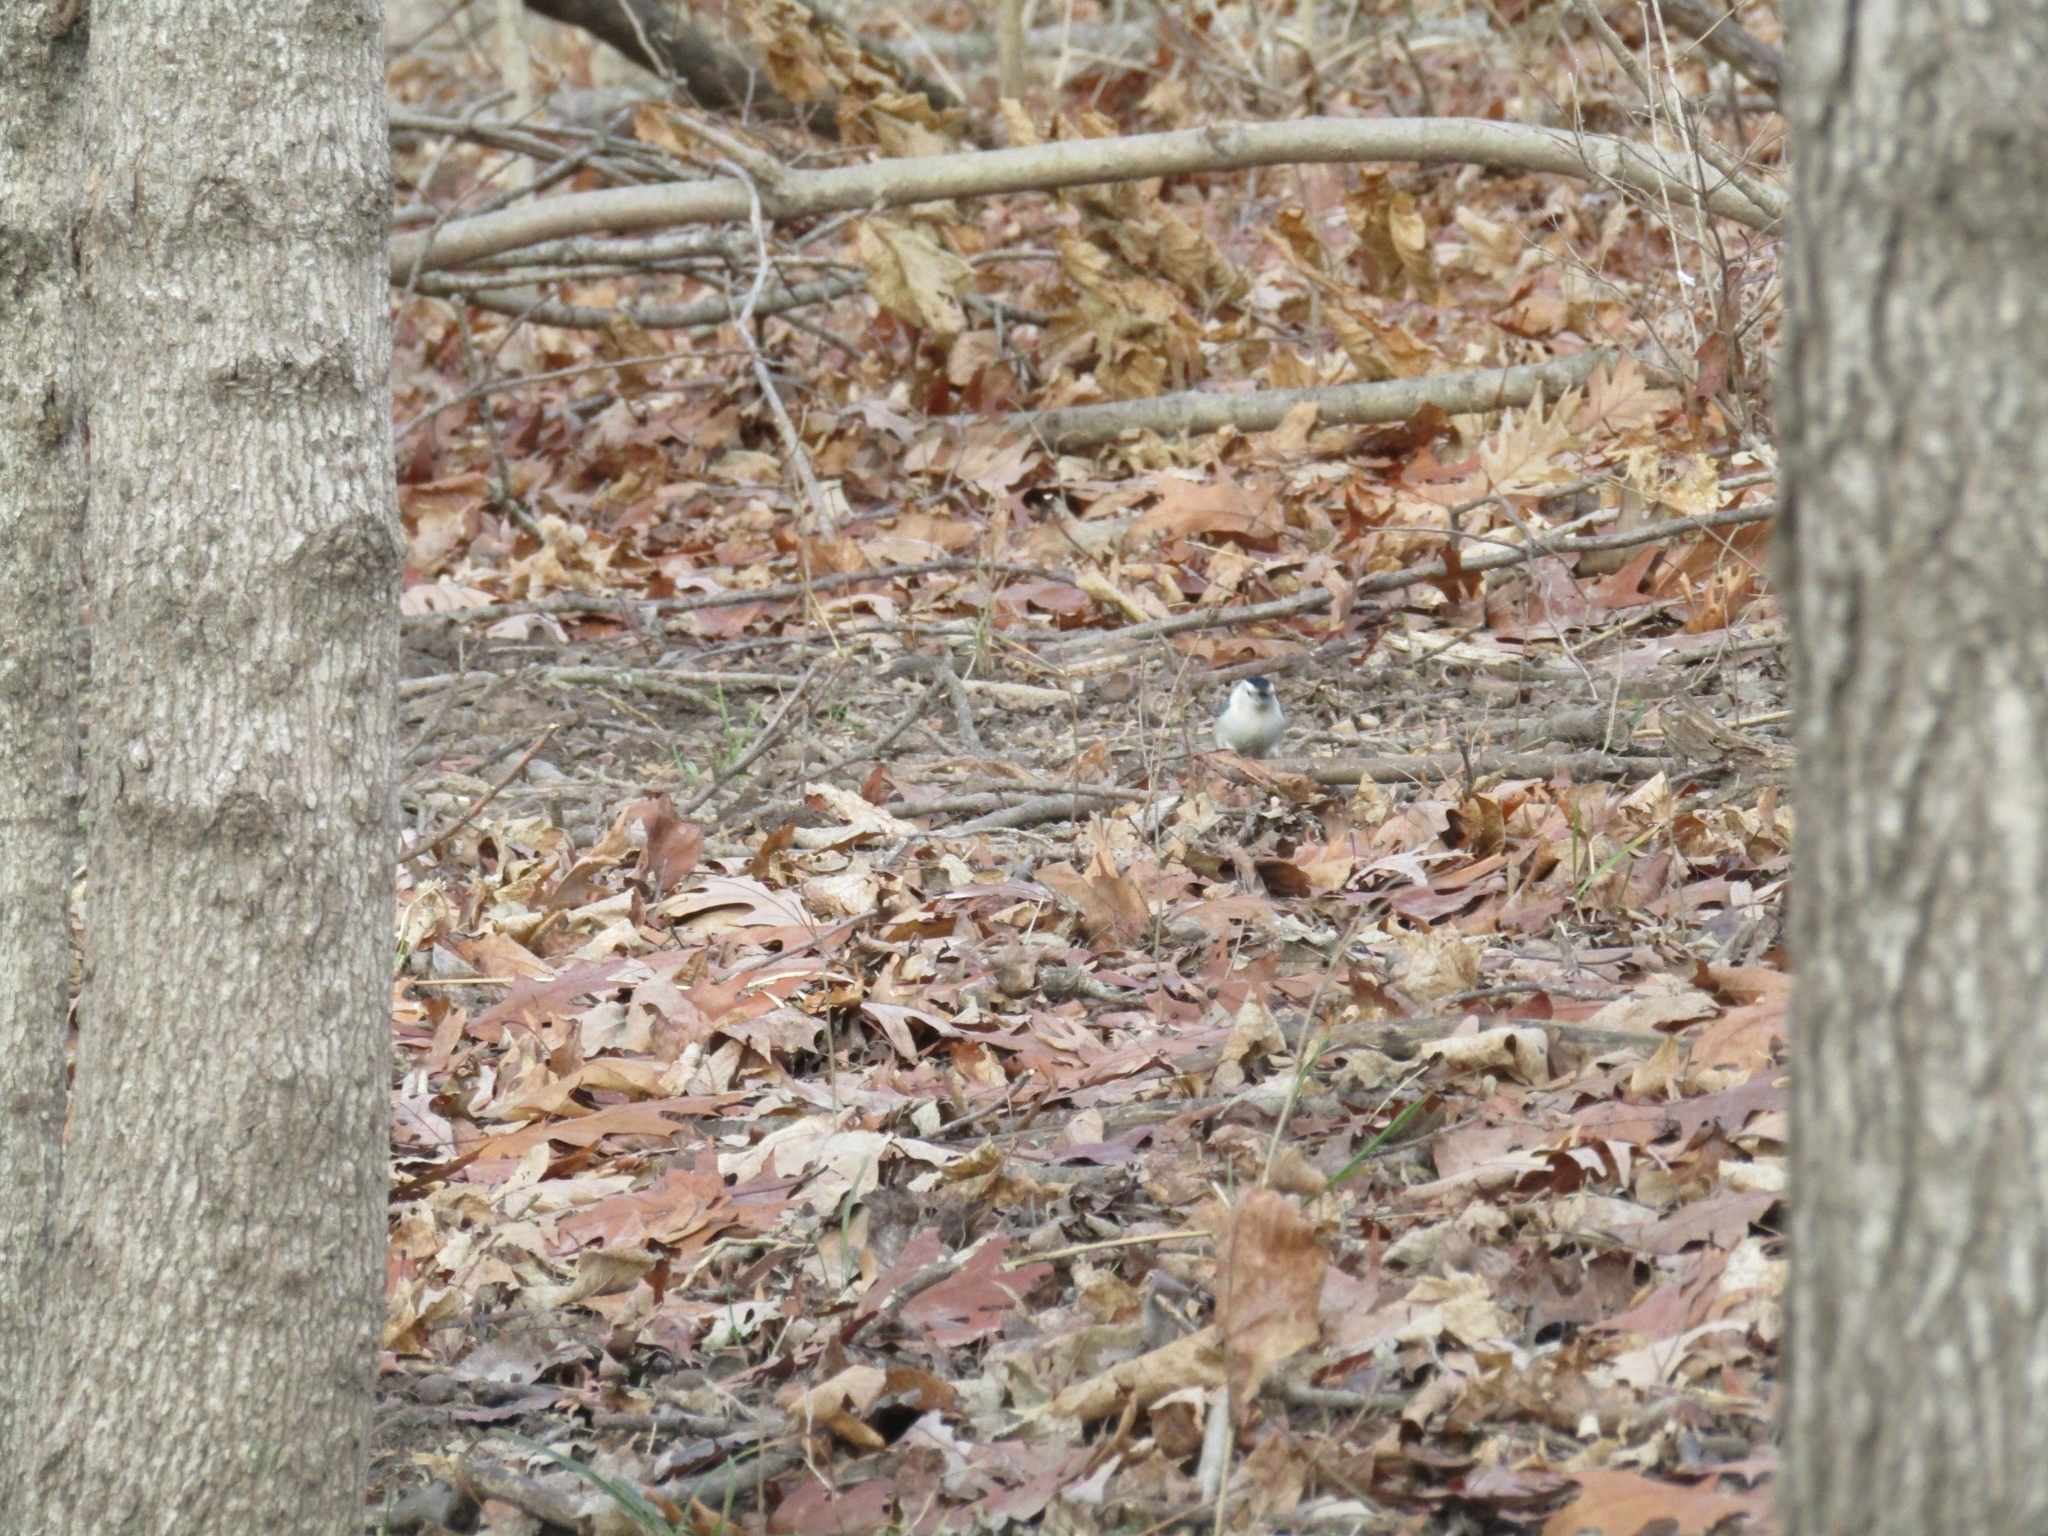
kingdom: Animalia
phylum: Chordata
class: Aves
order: Passeriformes
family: Sittidae
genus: Sitta
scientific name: Sitta carolinensis
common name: White-breasted nuthatch
